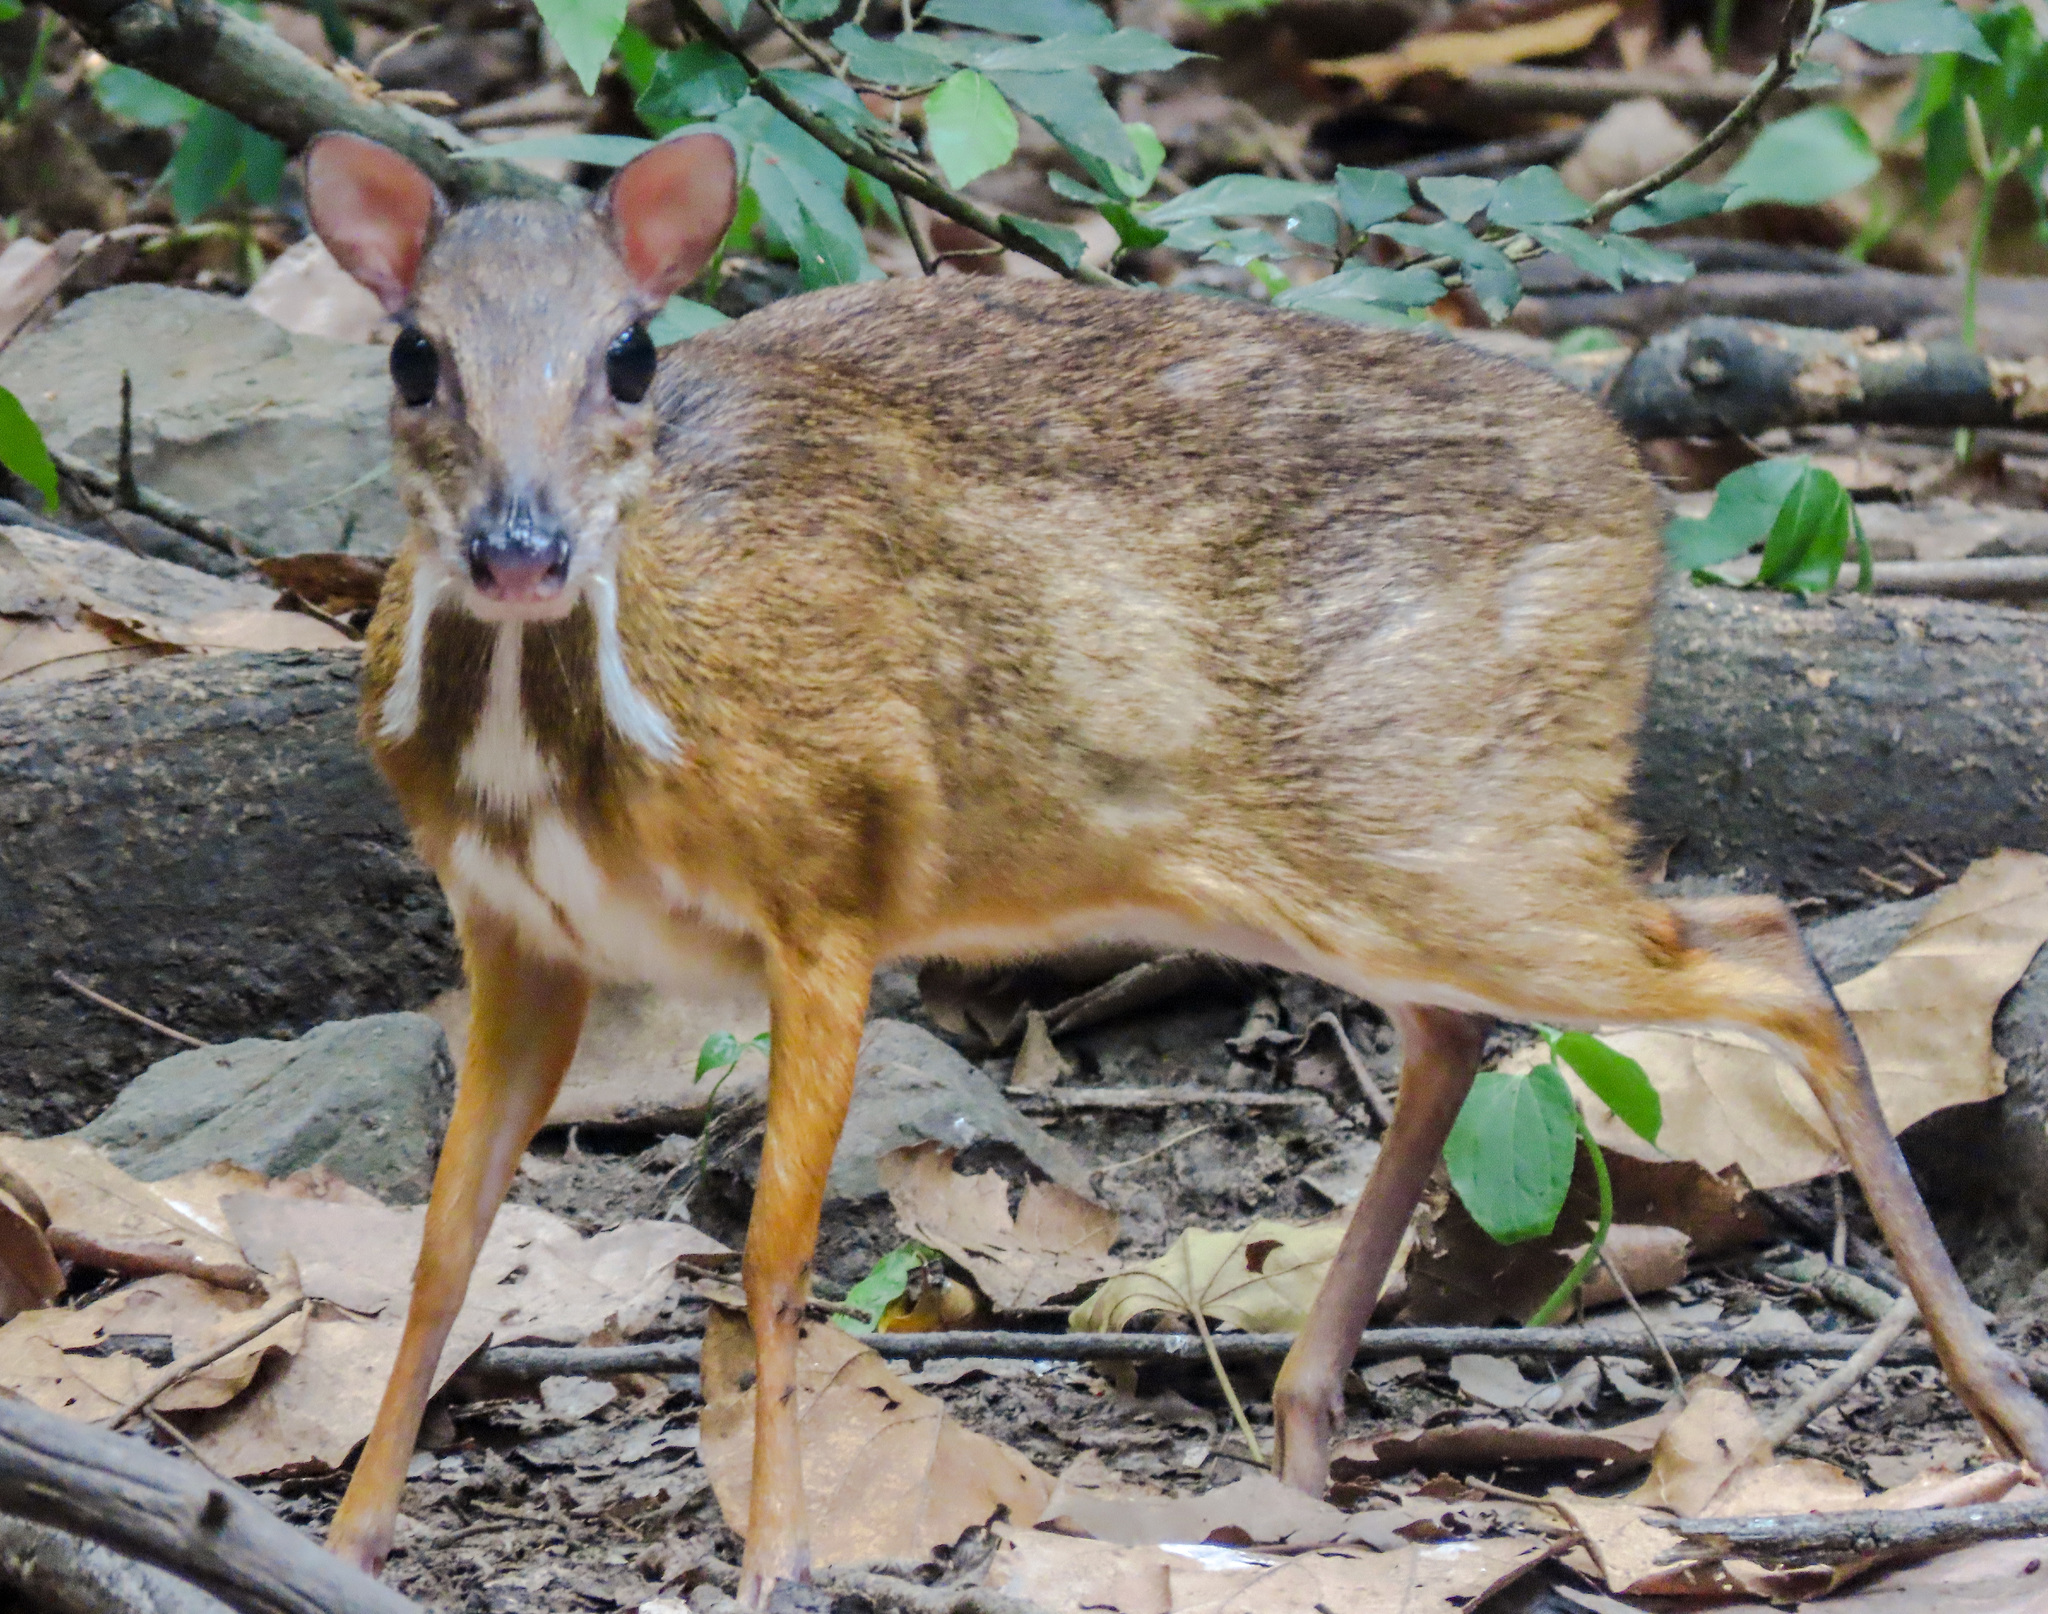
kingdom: Animalia
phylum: Chordata
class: Mammalia
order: Artiodactyla
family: Tragulidae
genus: Tragulus
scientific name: Tragulus kanchil
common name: Lesser mouse-deer
